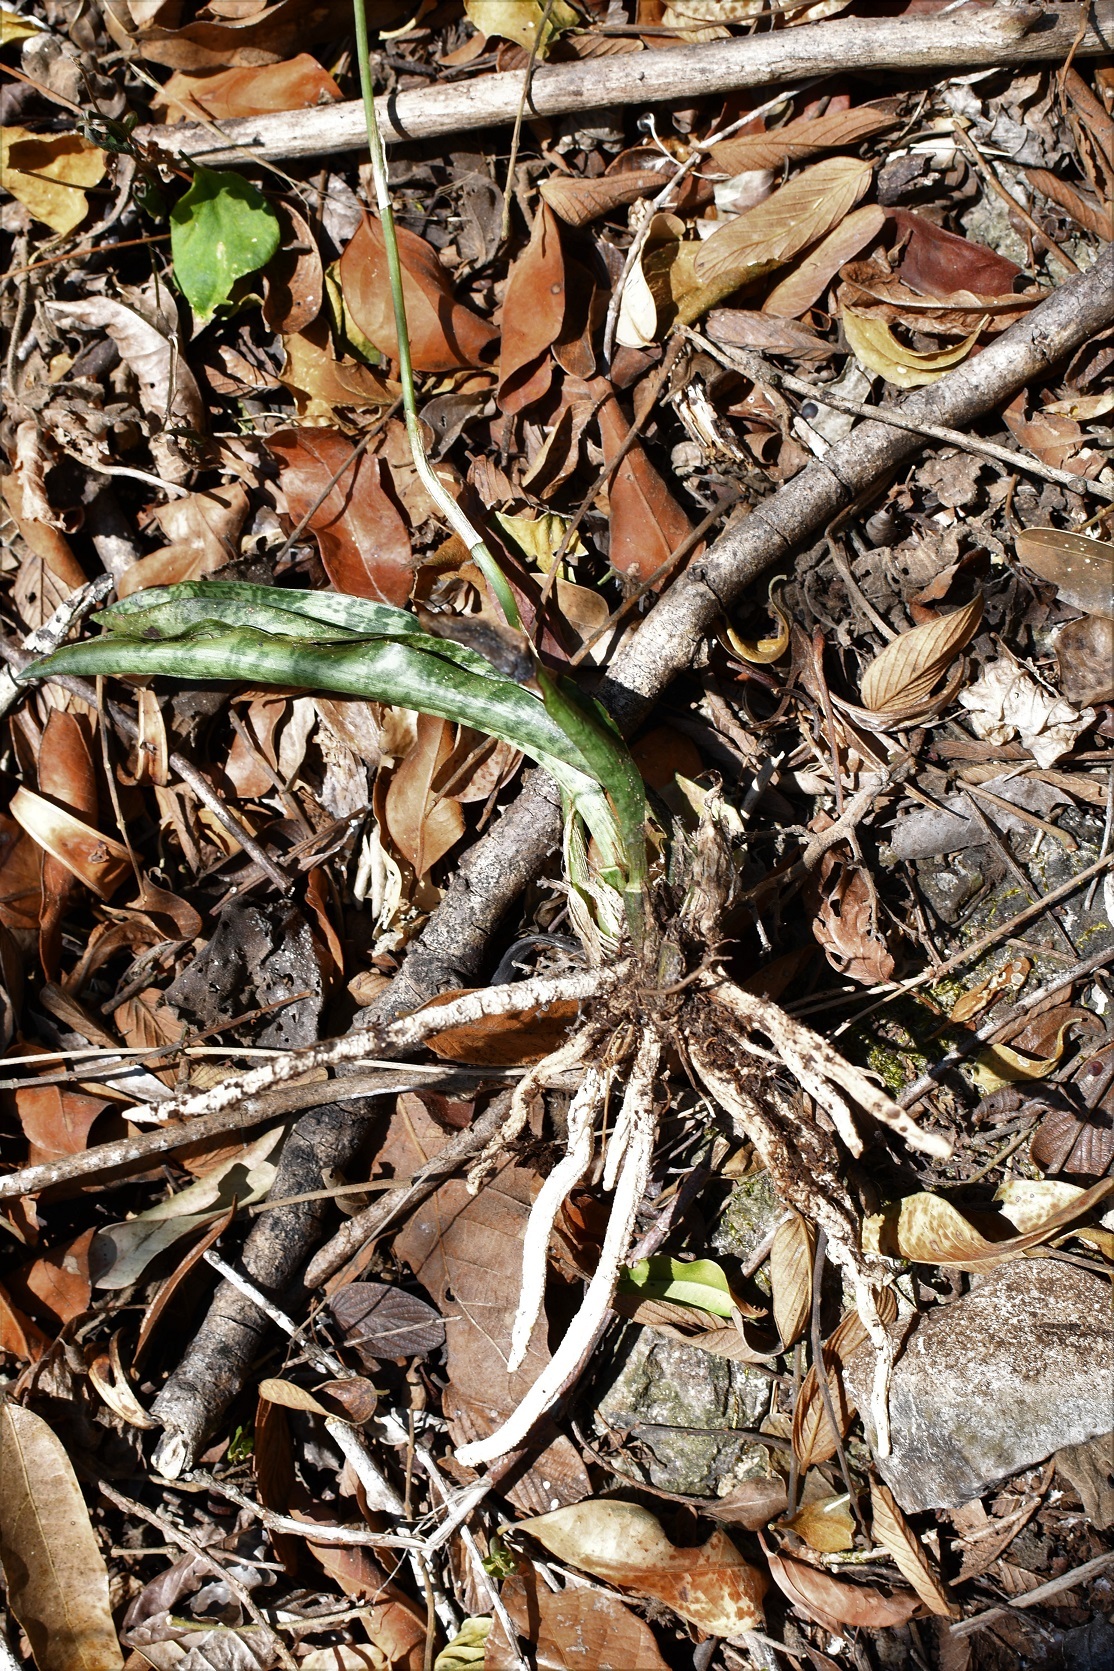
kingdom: Plantae
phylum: Tracheophyta
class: Liliopsida
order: Asparagales
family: Orchidaceae
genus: Eulophia
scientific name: Eulophia maculata
